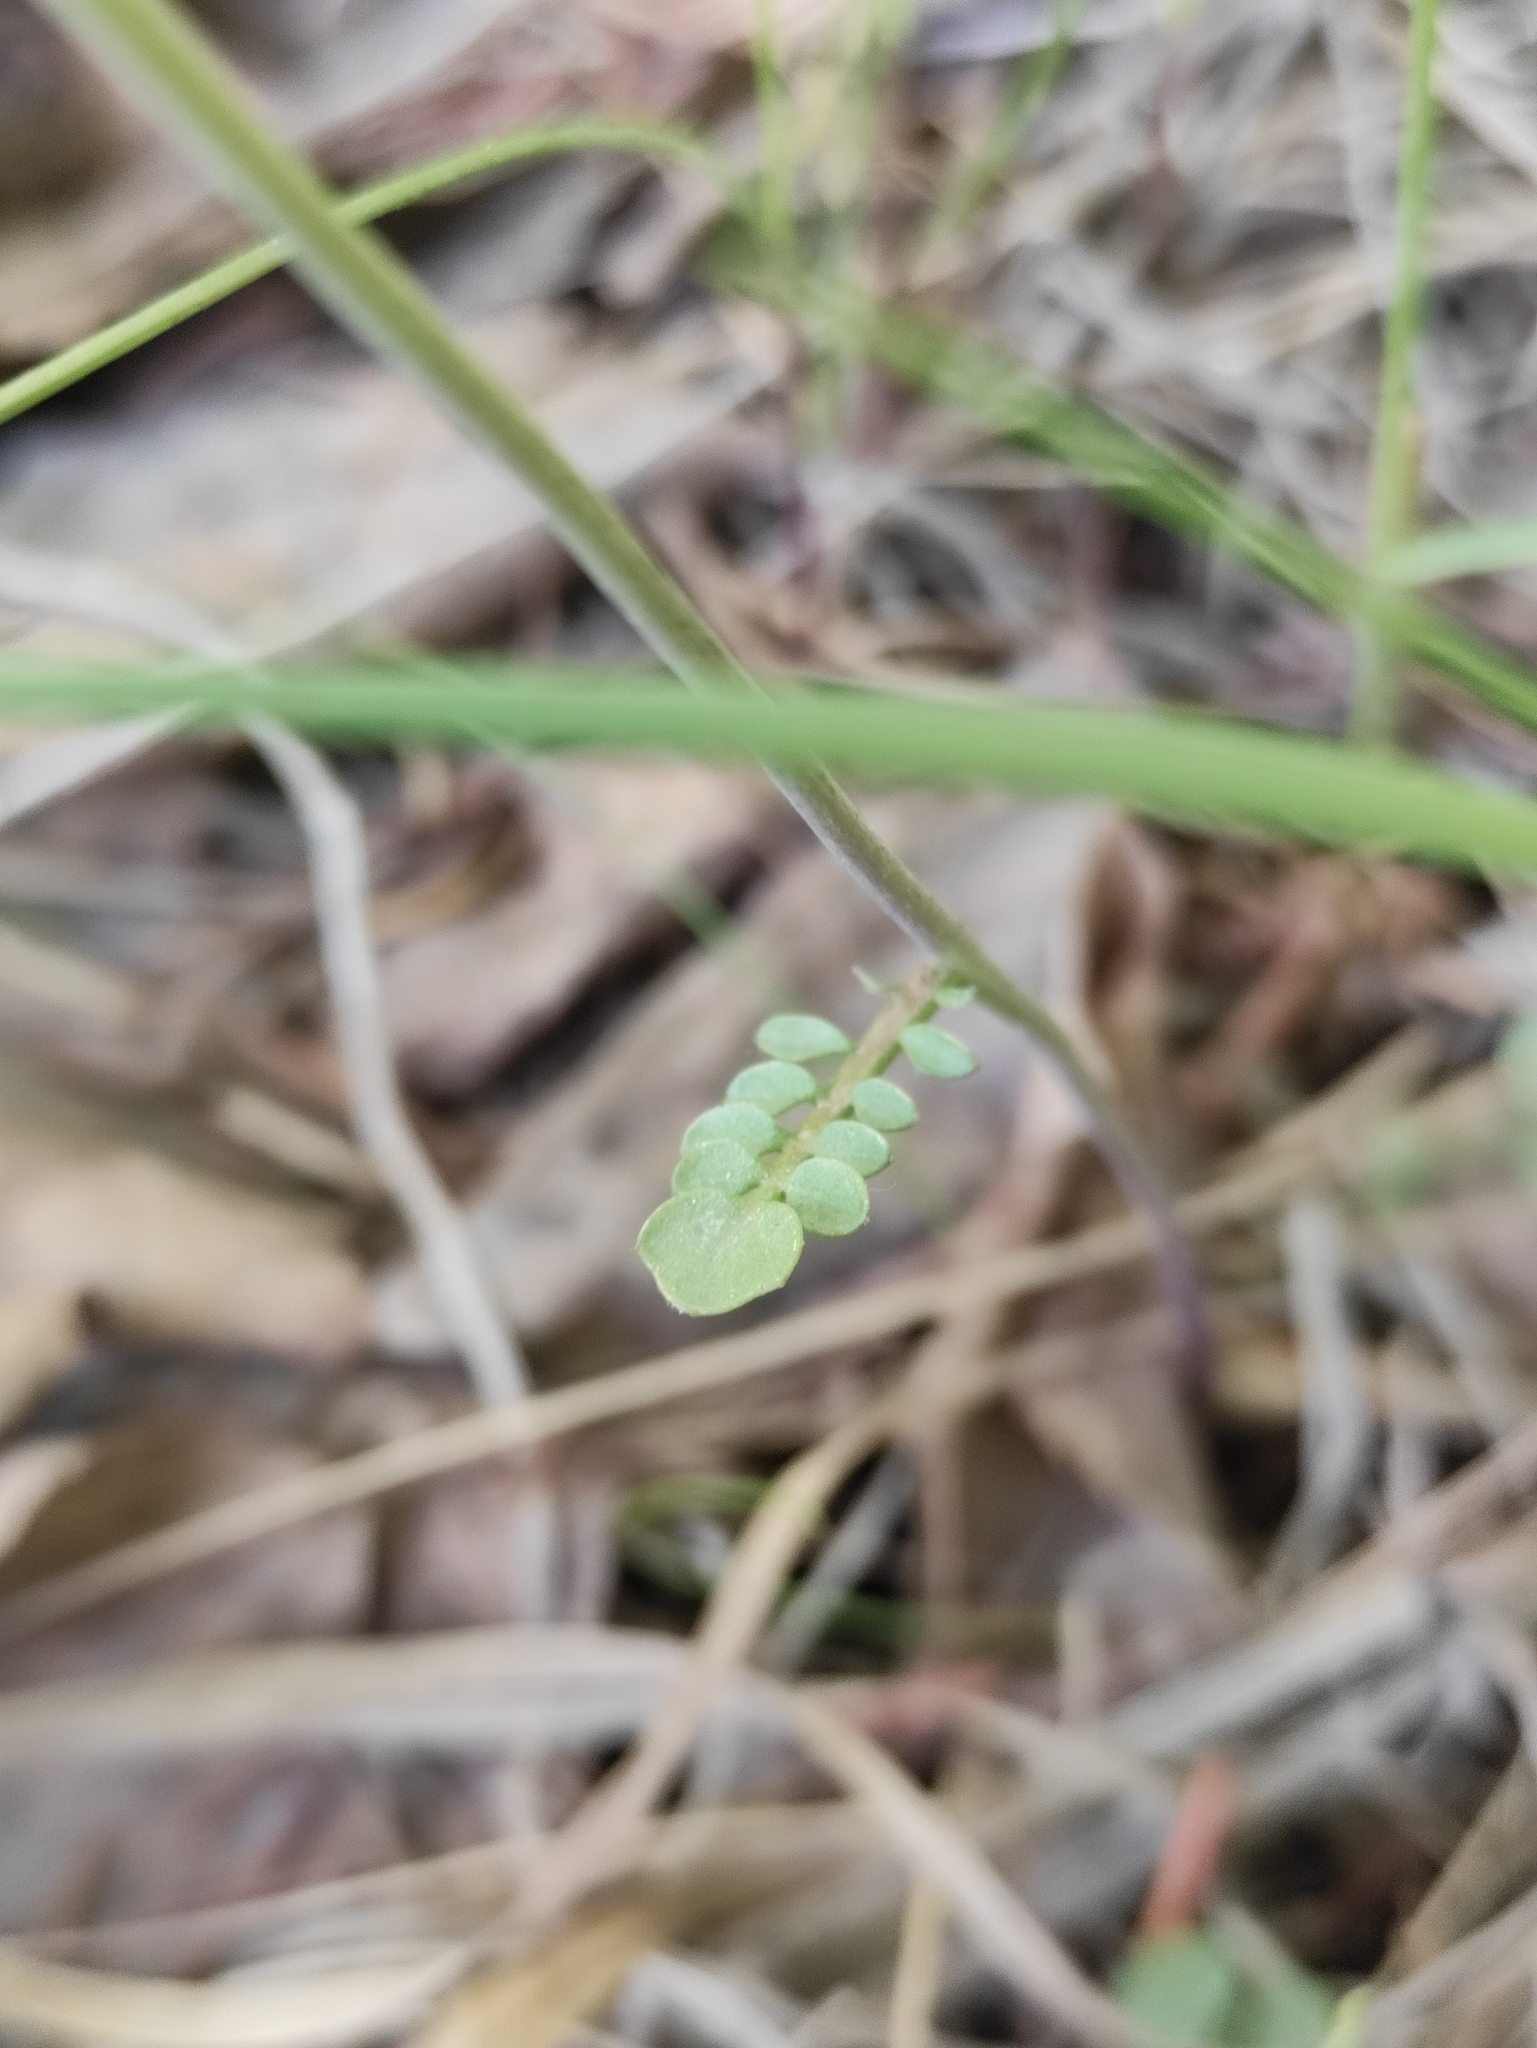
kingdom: Plantae
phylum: Tracheophyta
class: Magnoliopsida
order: Brassicales
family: Brassicaceae
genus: Cardamine
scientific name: Cardamine pratensis
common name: Cuckoo flower
